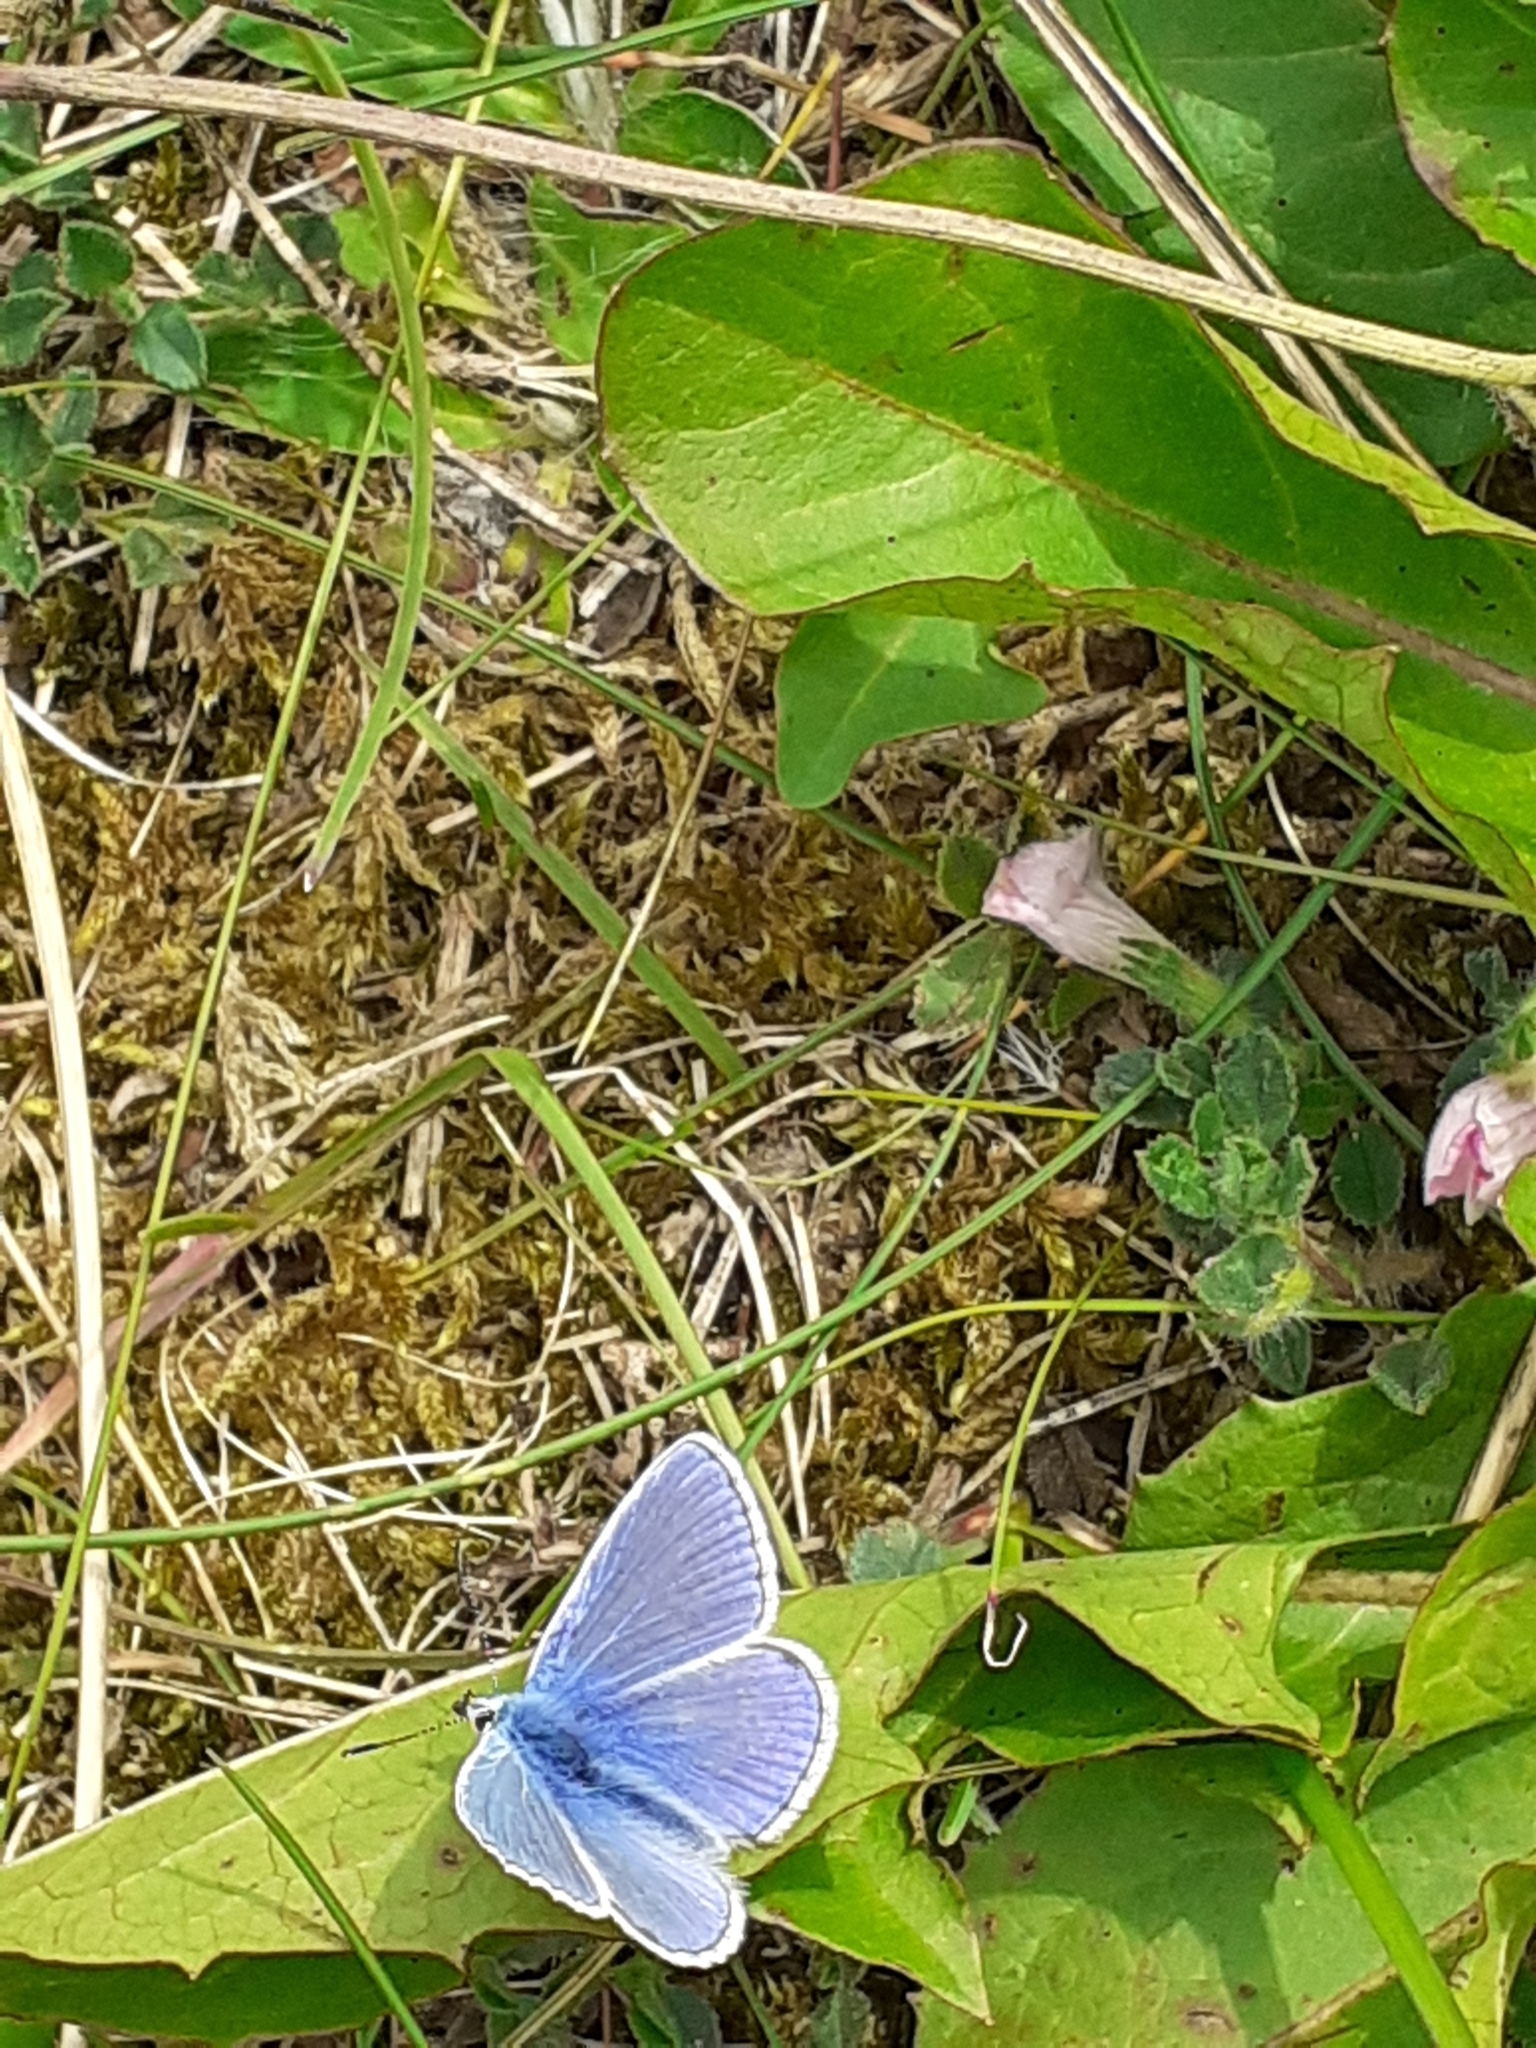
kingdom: Animalia
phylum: Arthropoda
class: Insecta
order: Lepidoptera
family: Lycaenidae
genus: Polyommatus
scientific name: Polyommatus icarus
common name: Common blue
